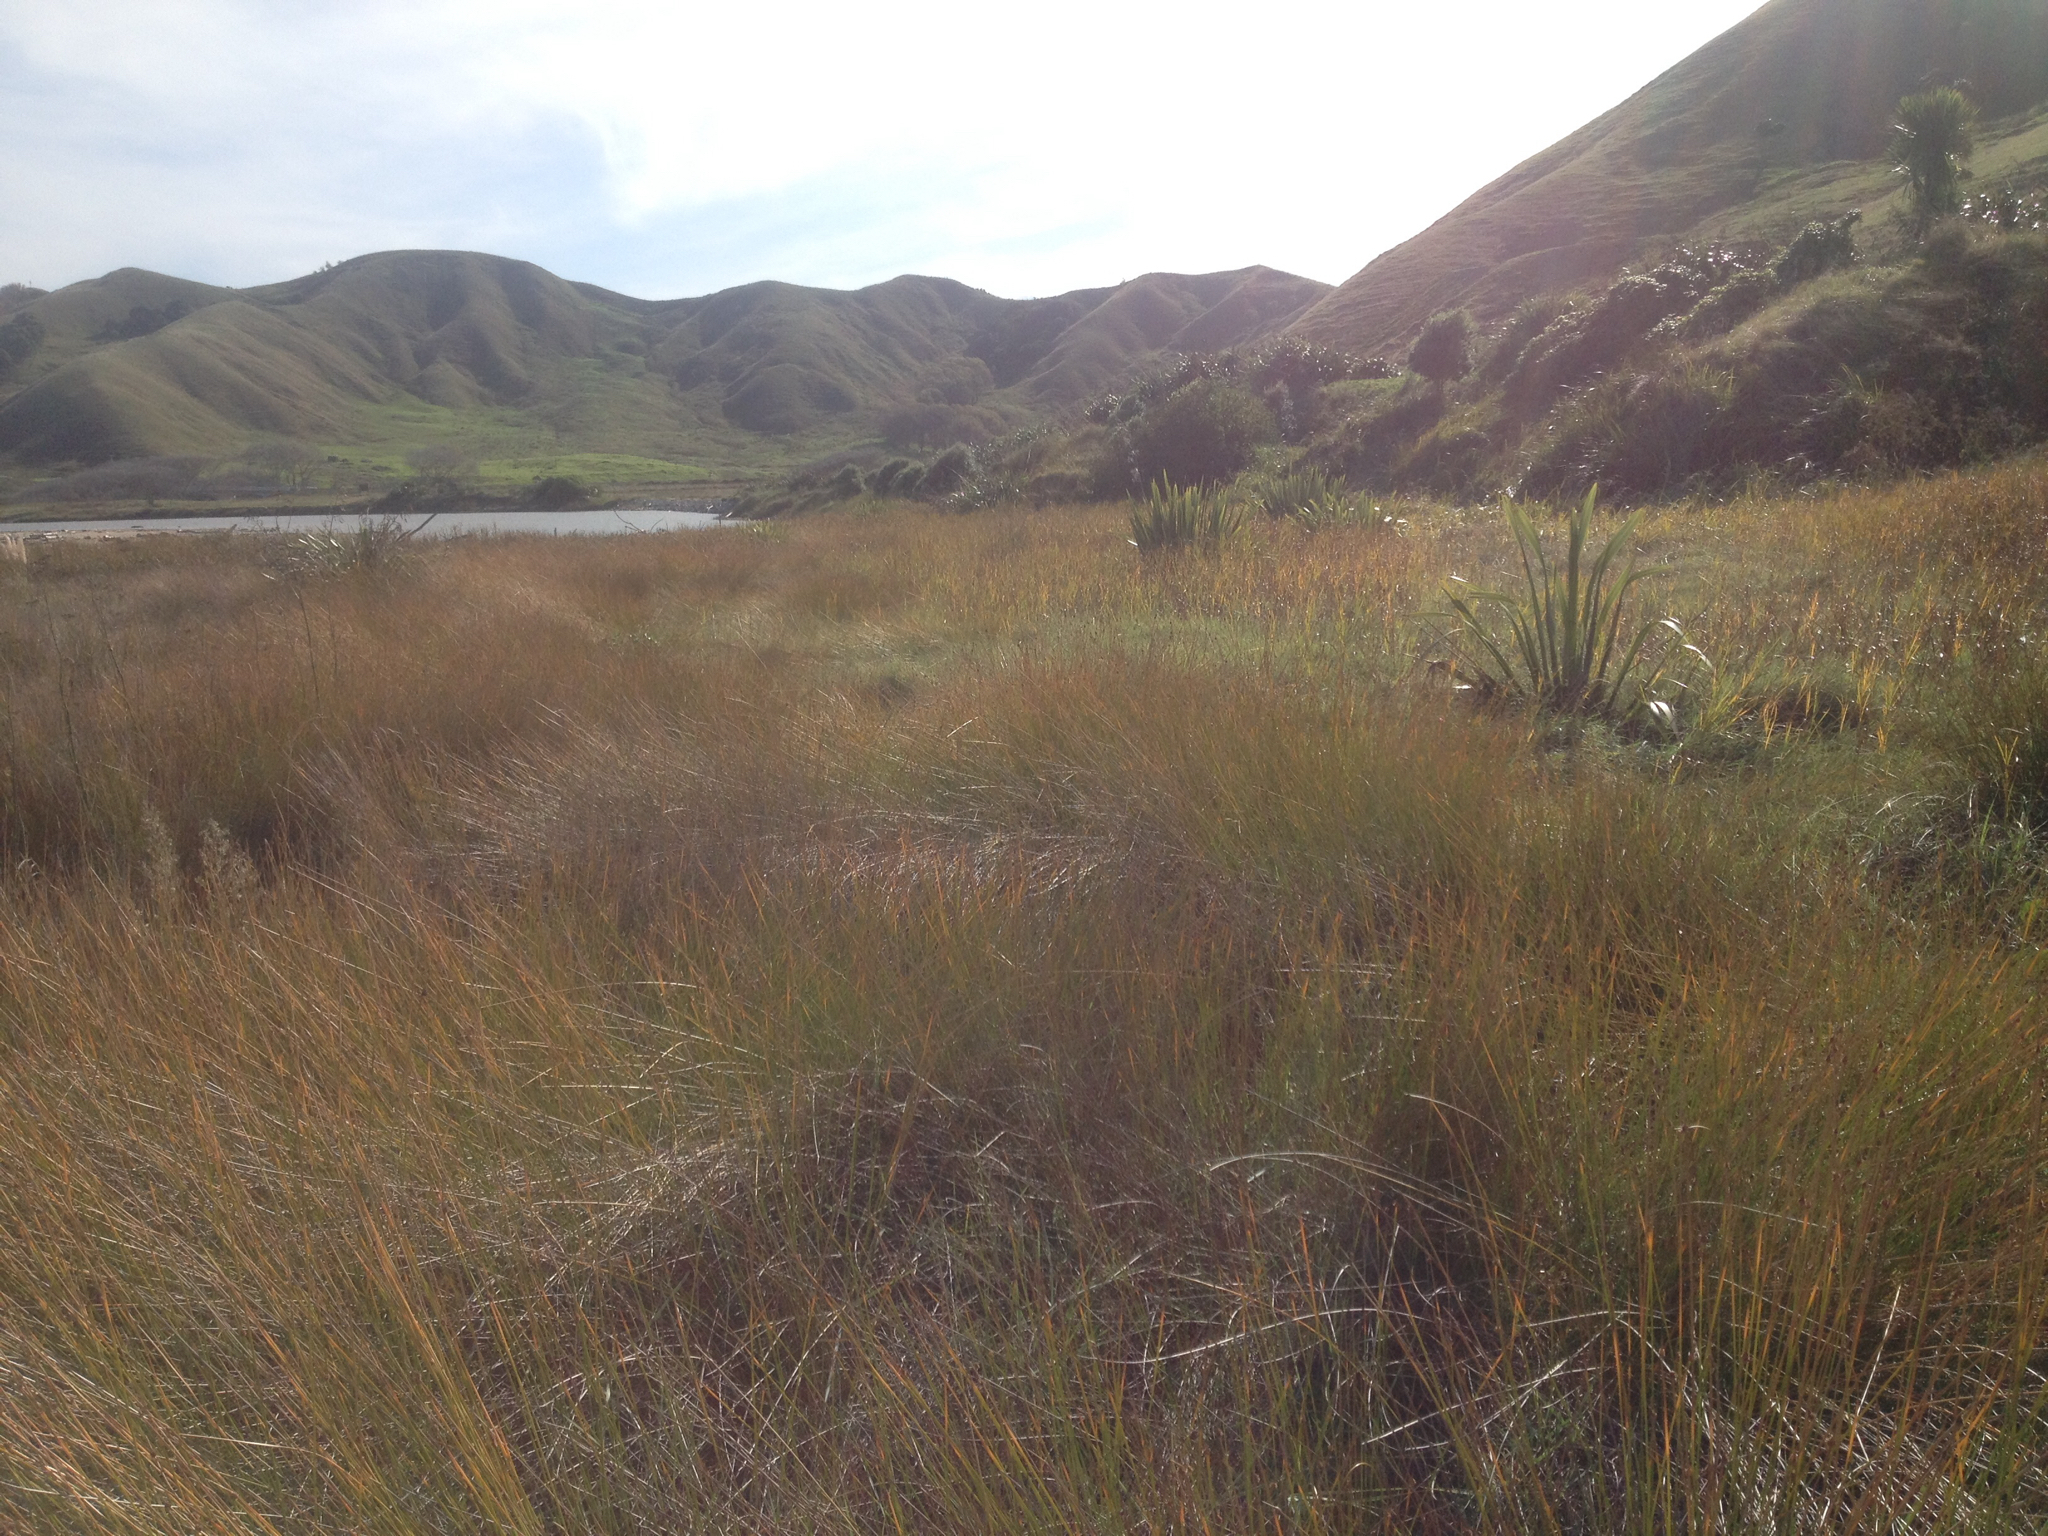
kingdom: Plantae
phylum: Tracheophyta
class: Liliopsida
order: Poales
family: Cyperaceae
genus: Ficinia
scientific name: Ficinia nodosa
